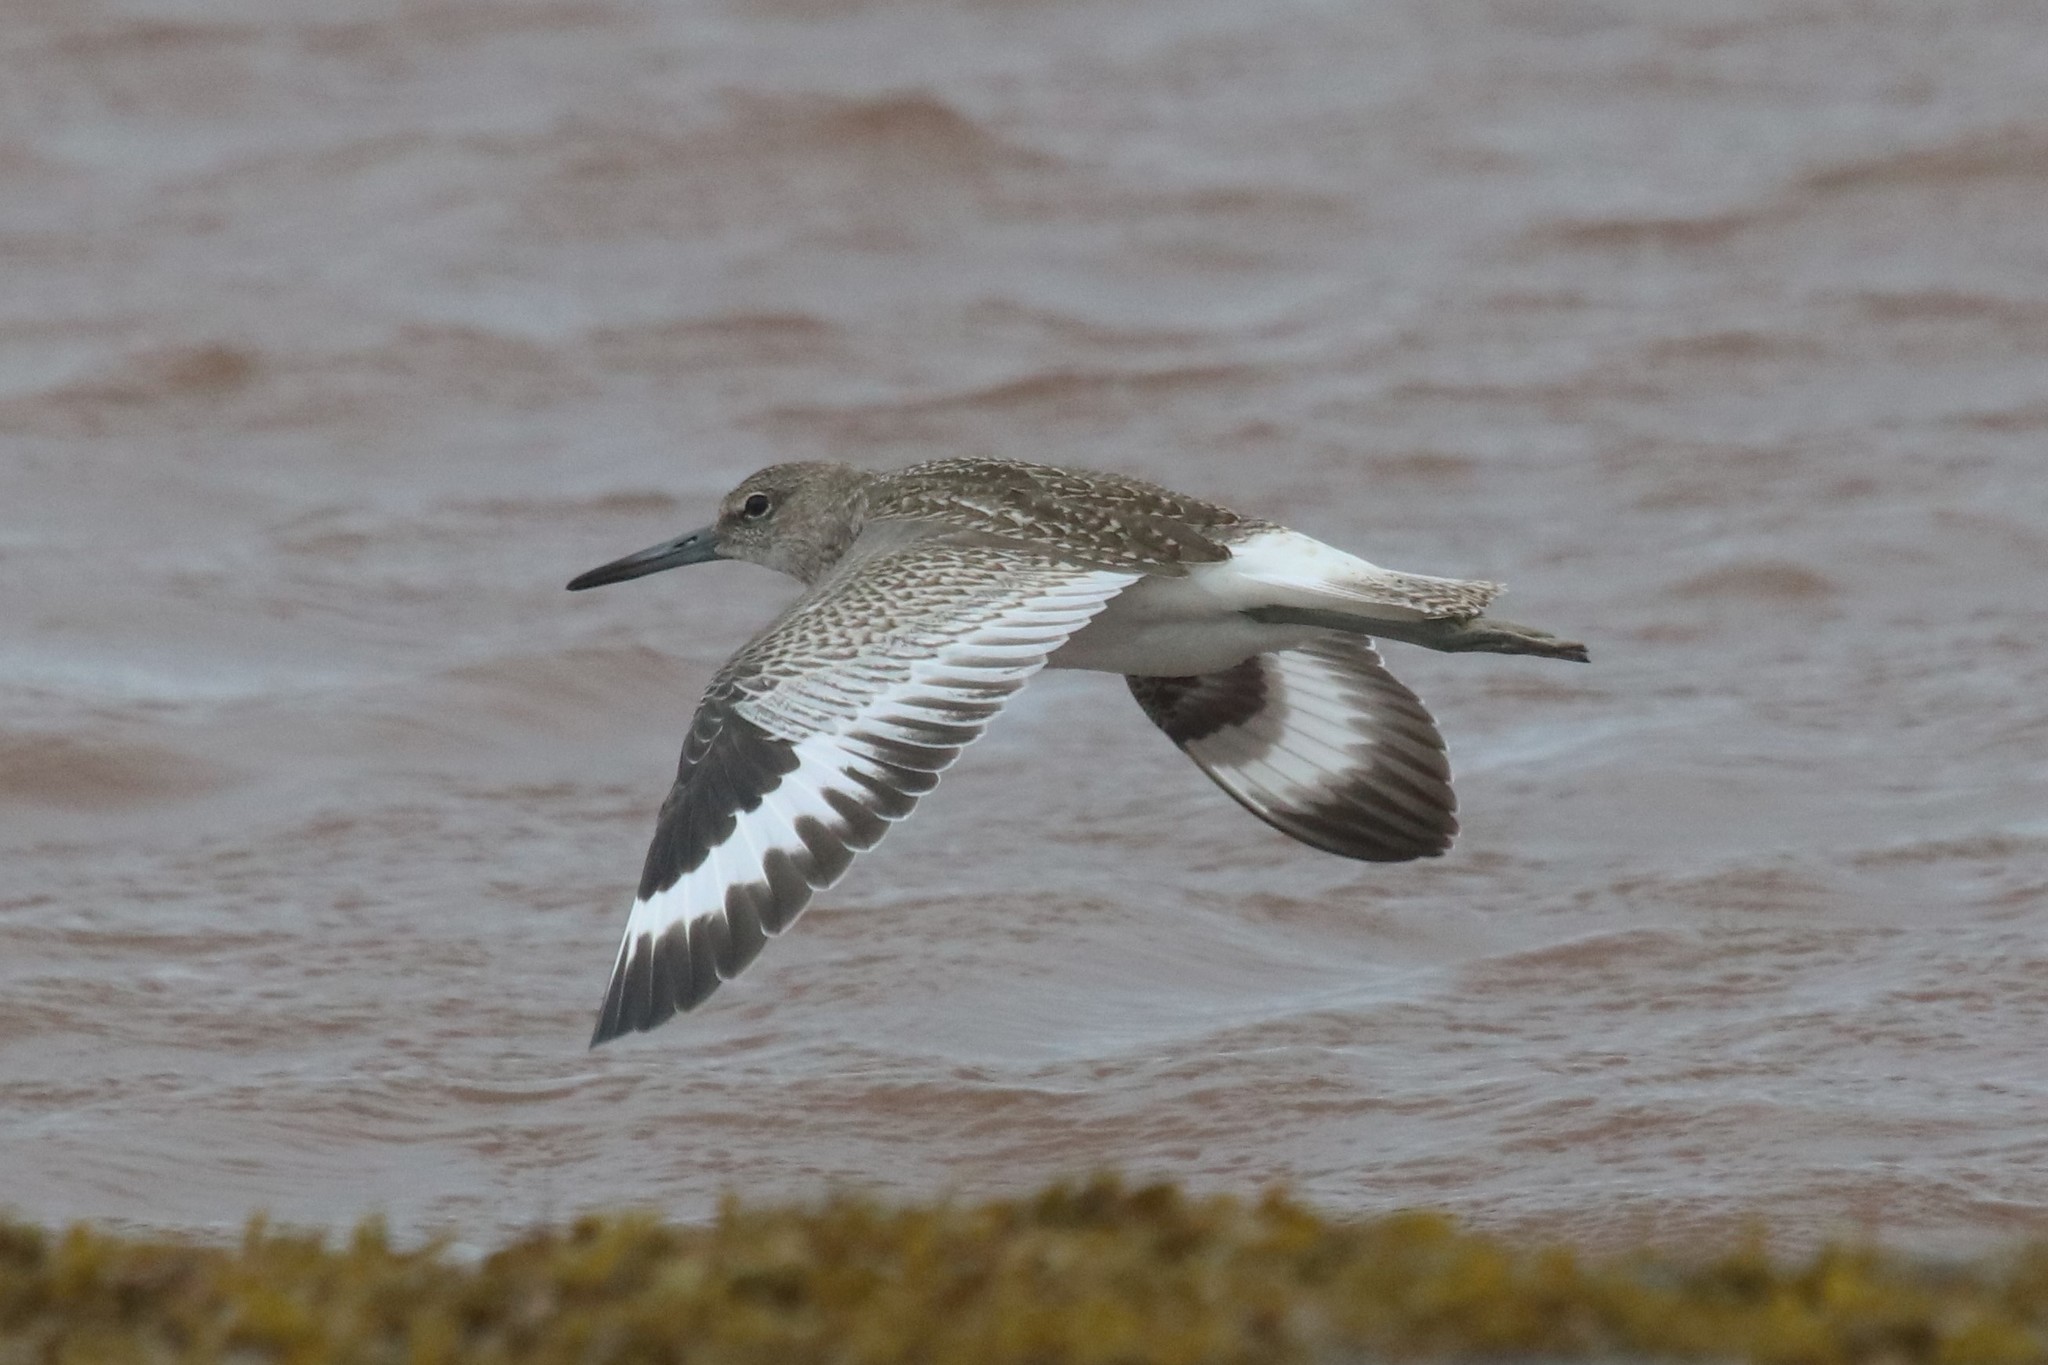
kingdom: Animalia
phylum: Chordata
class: Aves
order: Charadriiformes
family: Scolopacidae
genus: Tringa
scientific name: Tringa semipalmata
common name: Willet
